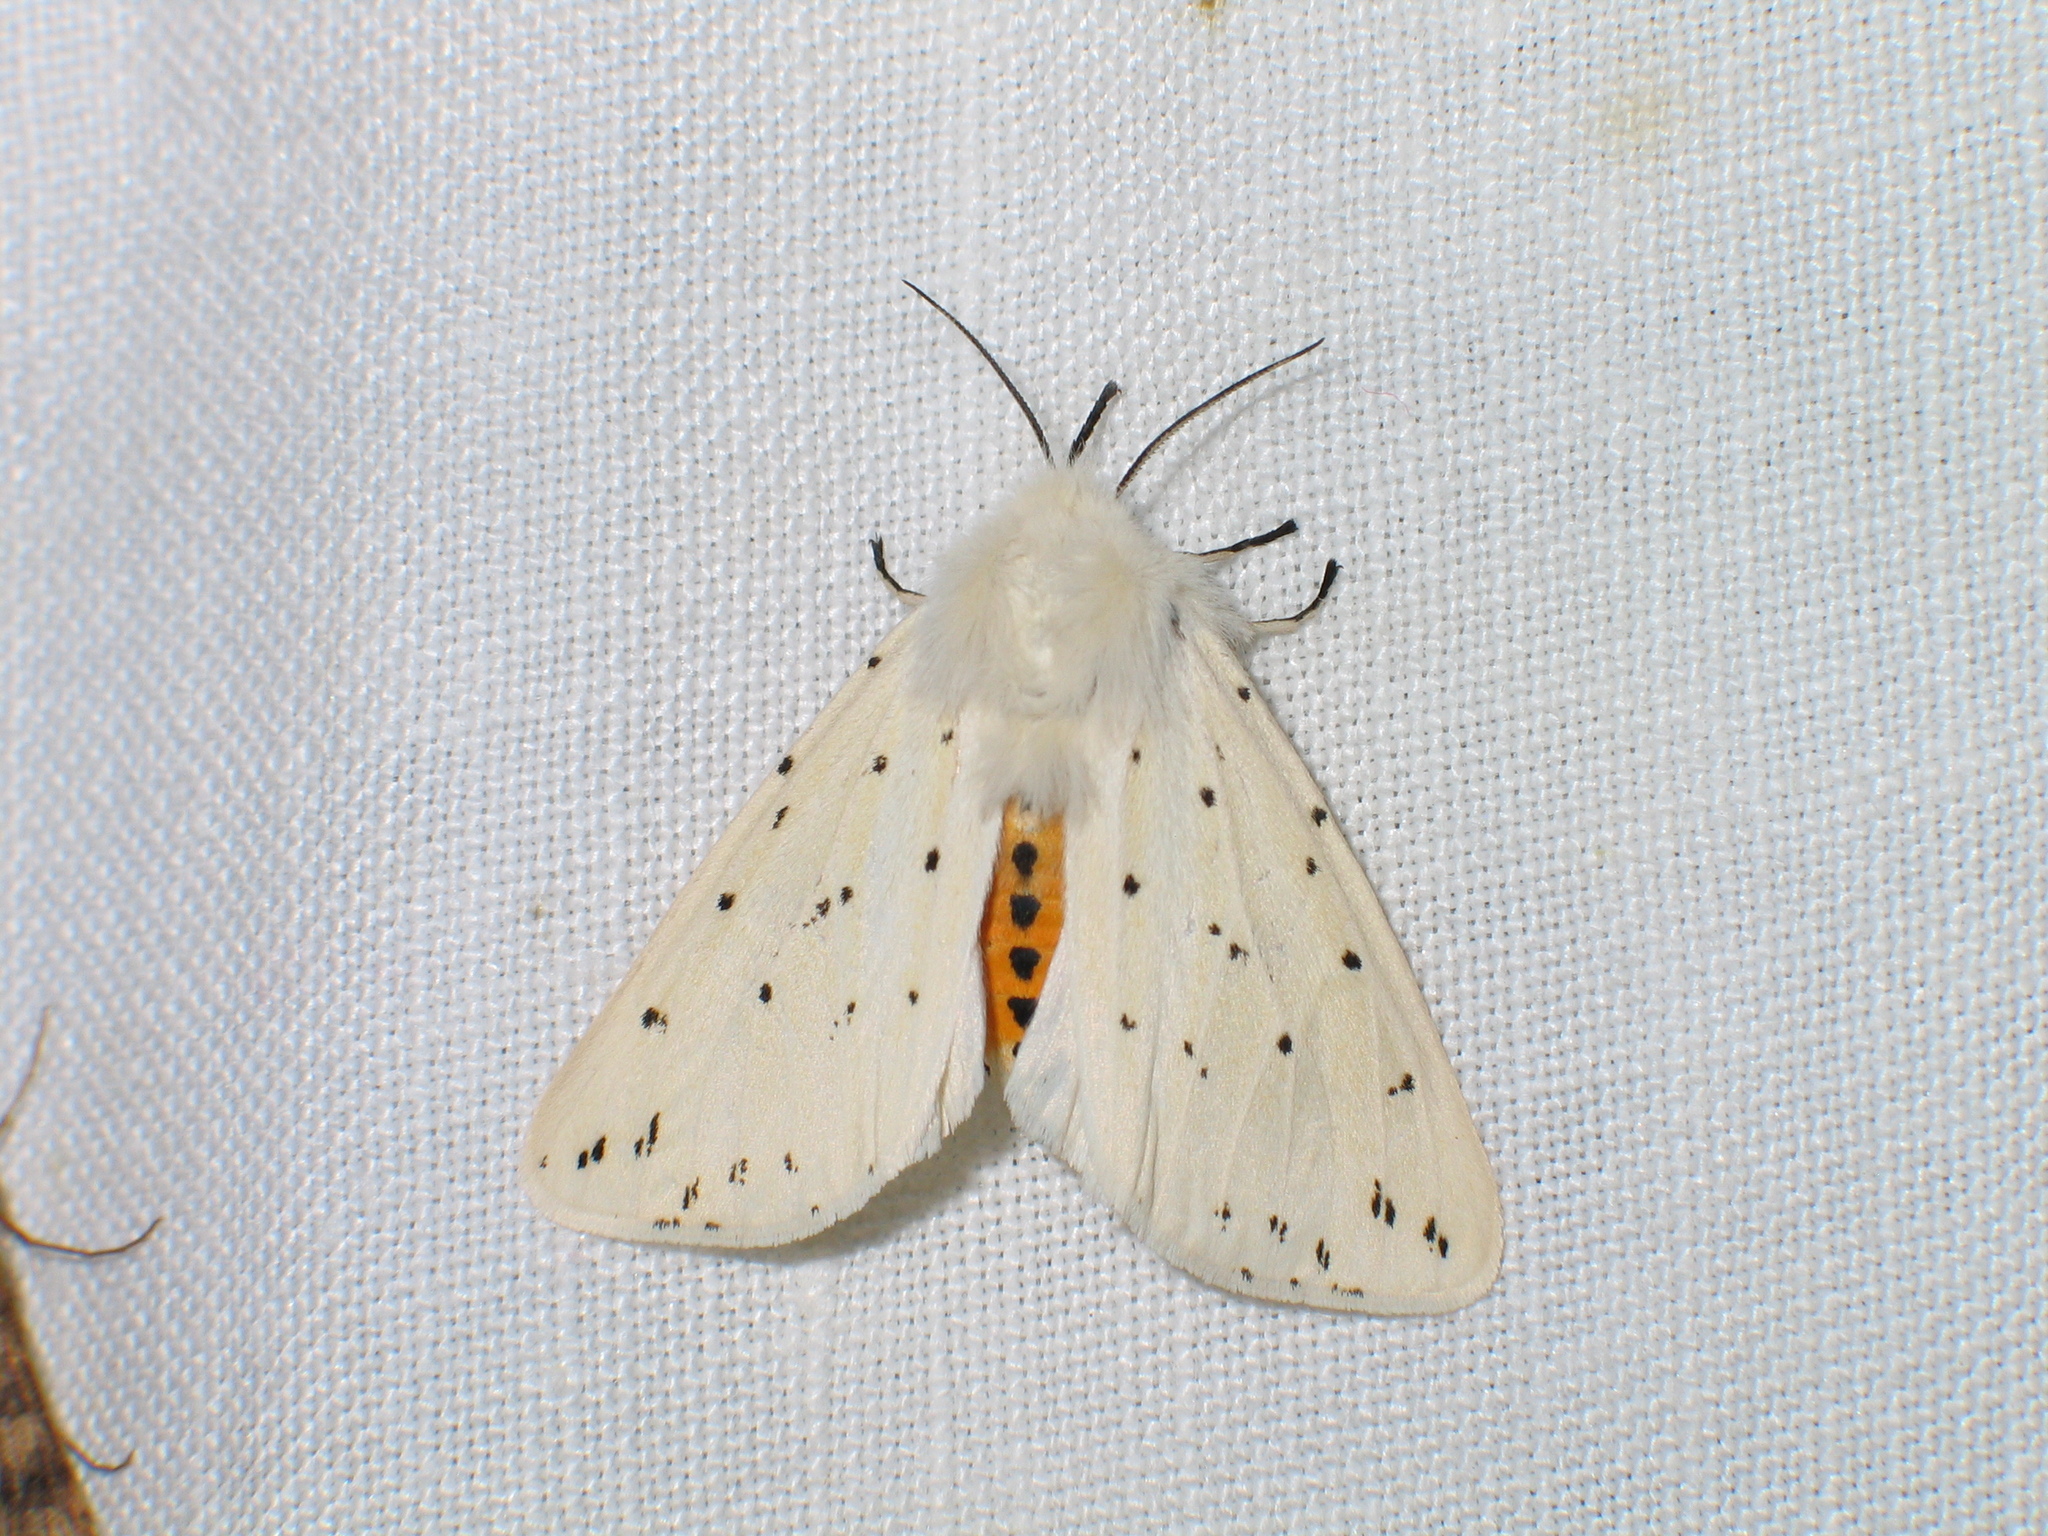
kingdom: Animalia
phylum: Arthropoda
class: Insecta
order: Lepidoptera
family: Erebidae
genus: Spilosoma
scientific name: Spilosoma lubricipeda
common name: White ermine
